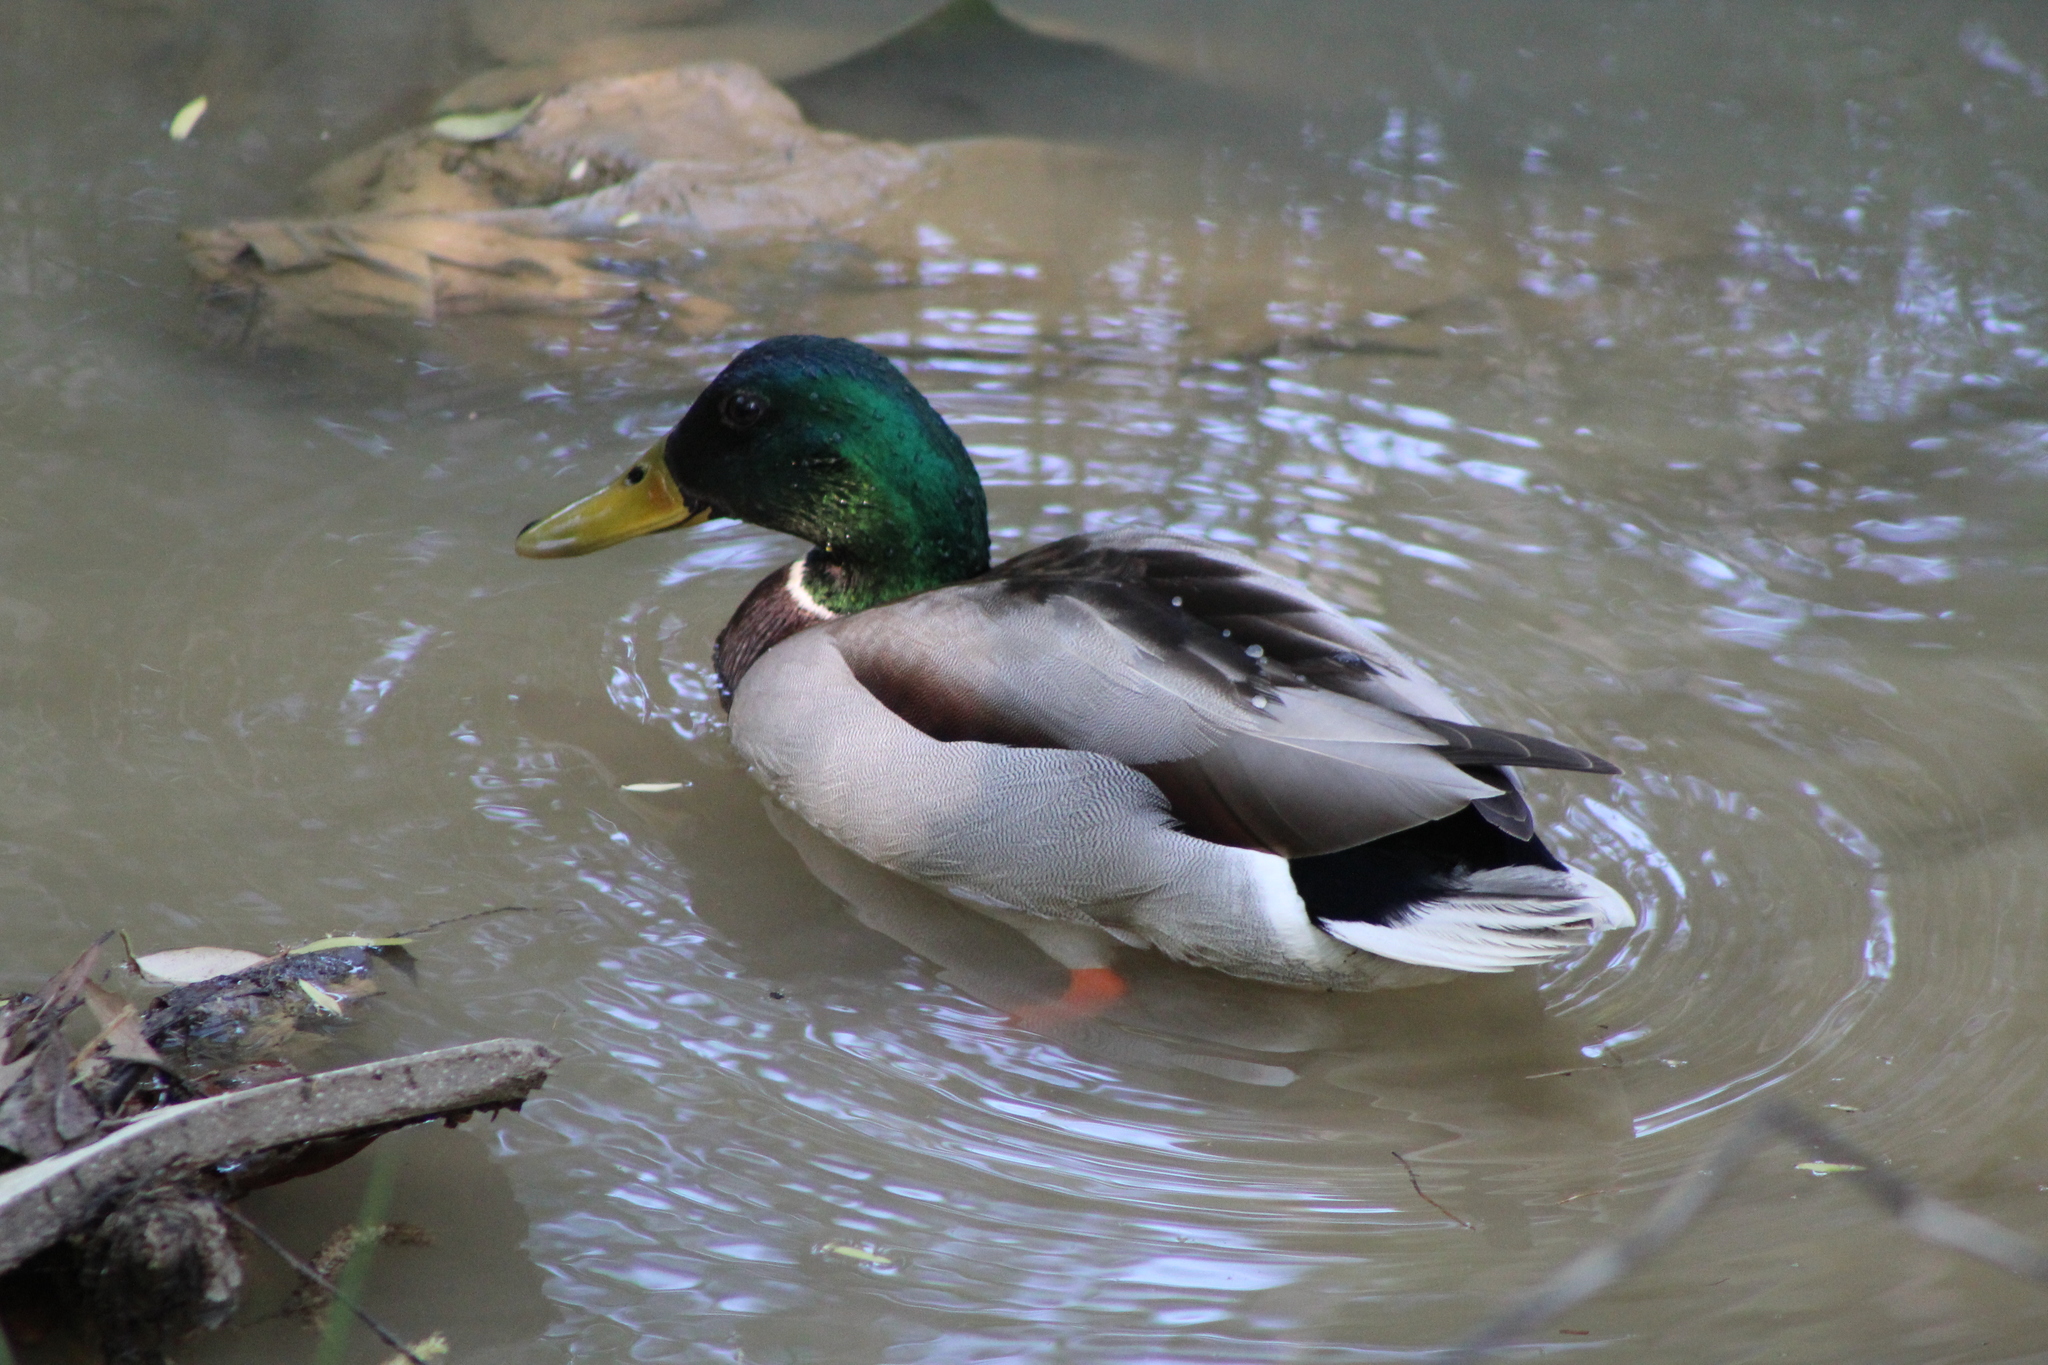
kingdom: Animalia
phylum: Chordata
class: Aves
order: Anseriformes
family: Anatidae
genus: Anas
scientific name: Anas platyrhynchos
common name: Mallard
